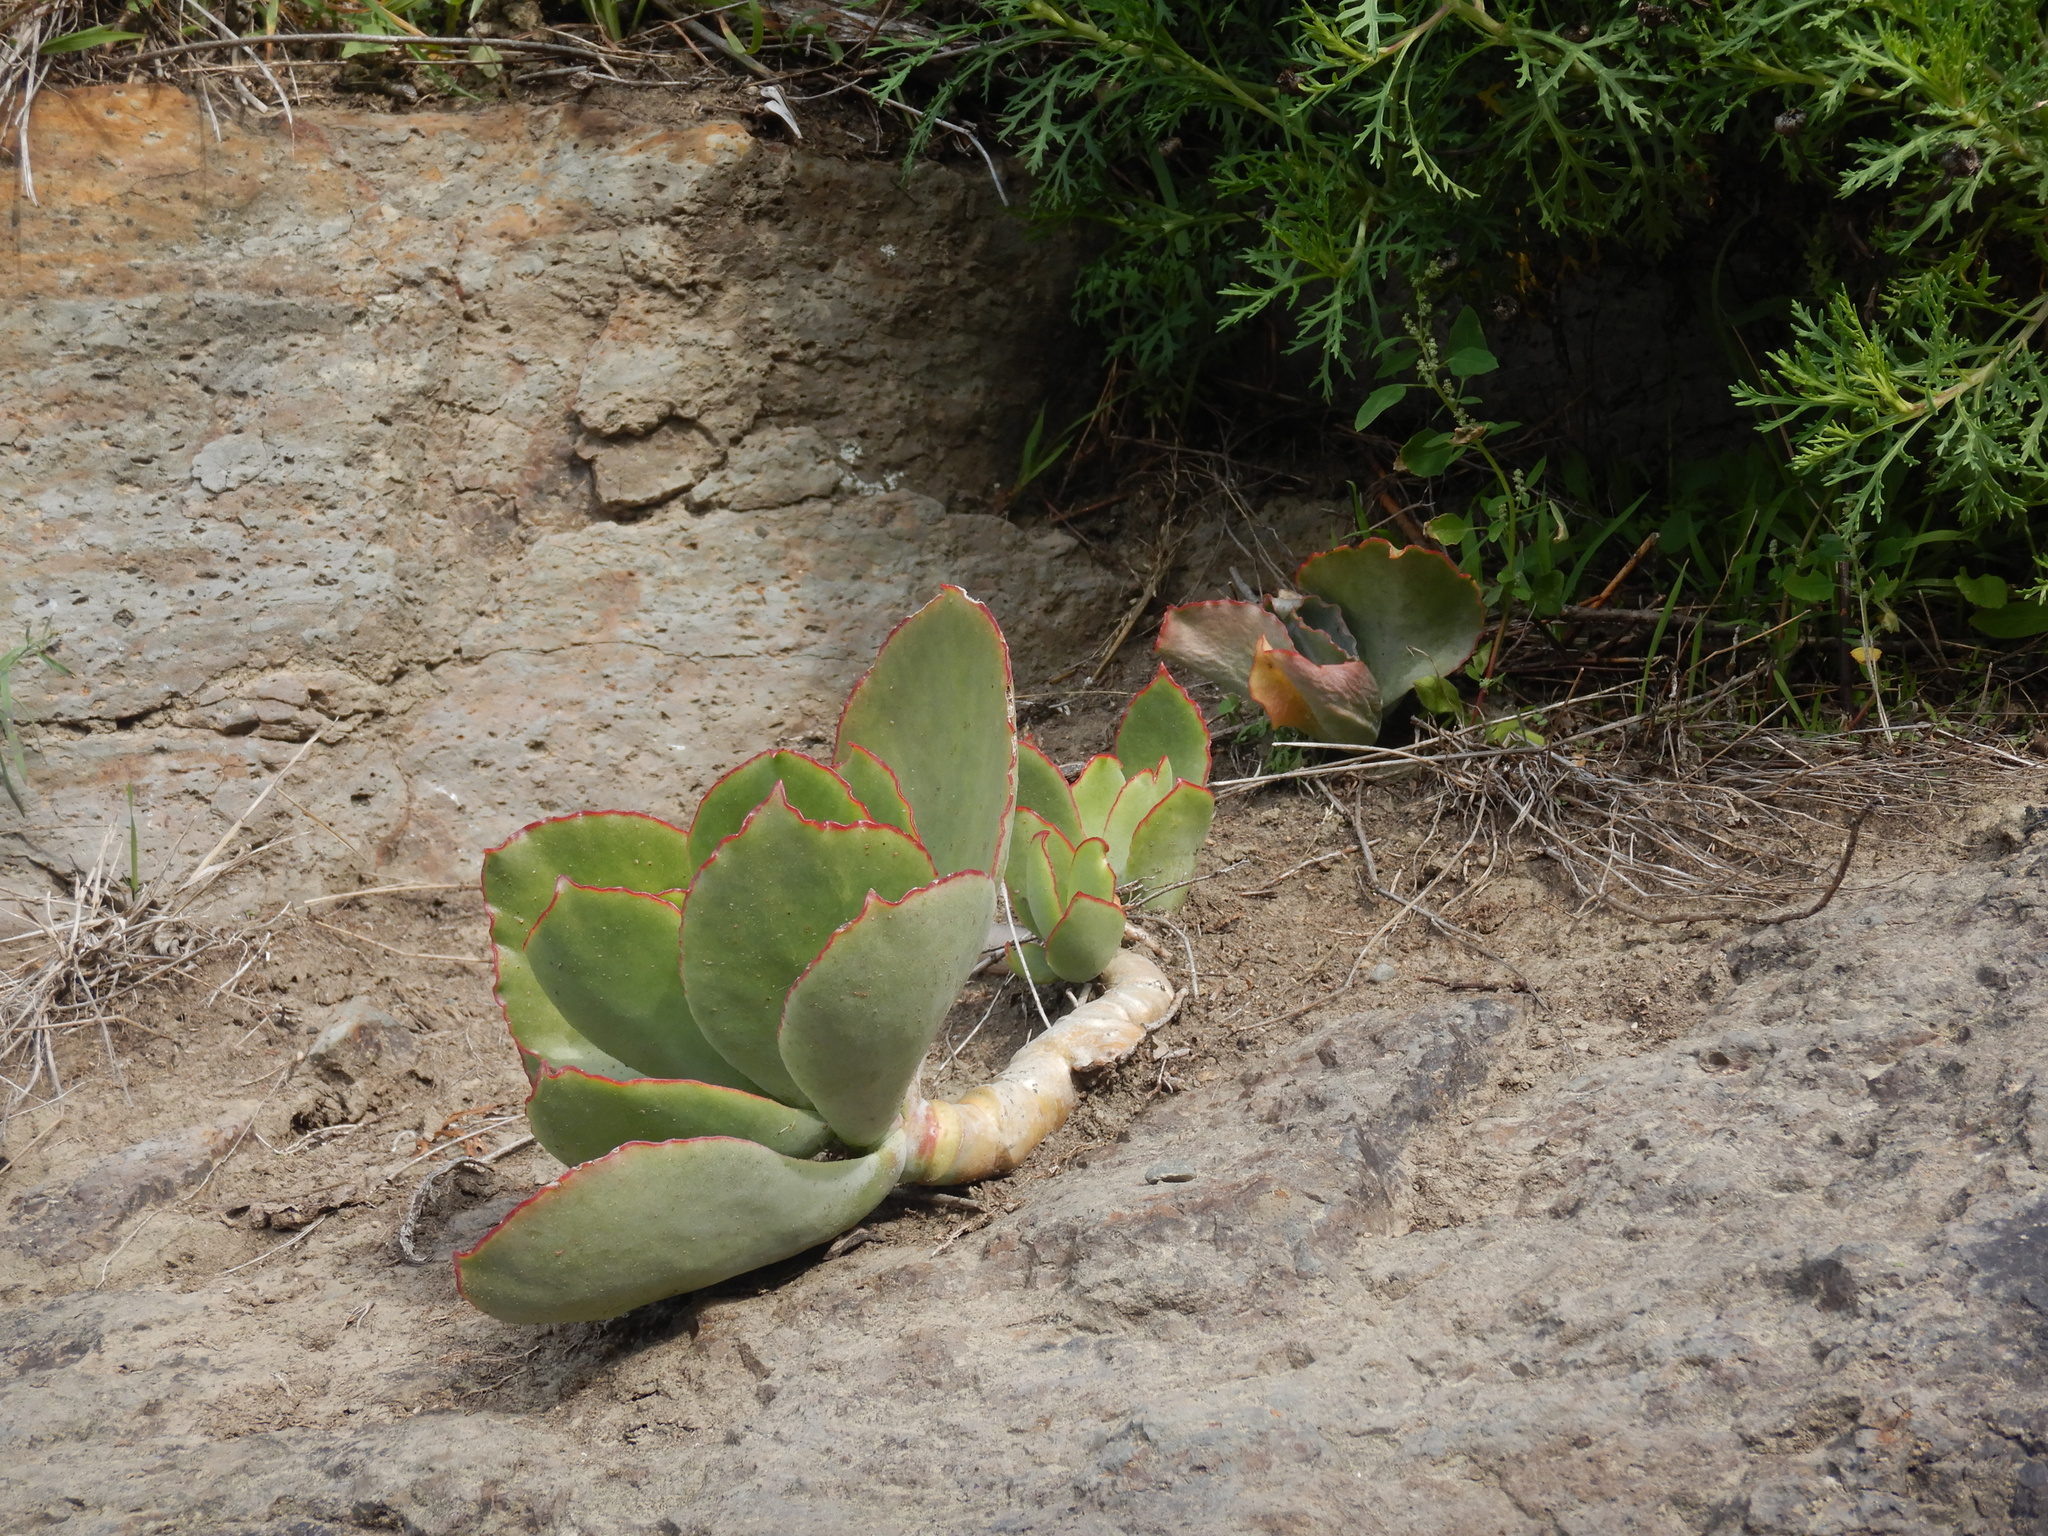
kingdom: Plantae
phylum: Tracheophyta
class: Magnoliopsida
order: Saxifragales
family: Crassulaceae
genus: Cotyledon
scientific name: Cotyledon orbiculata
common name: Pig's ear
